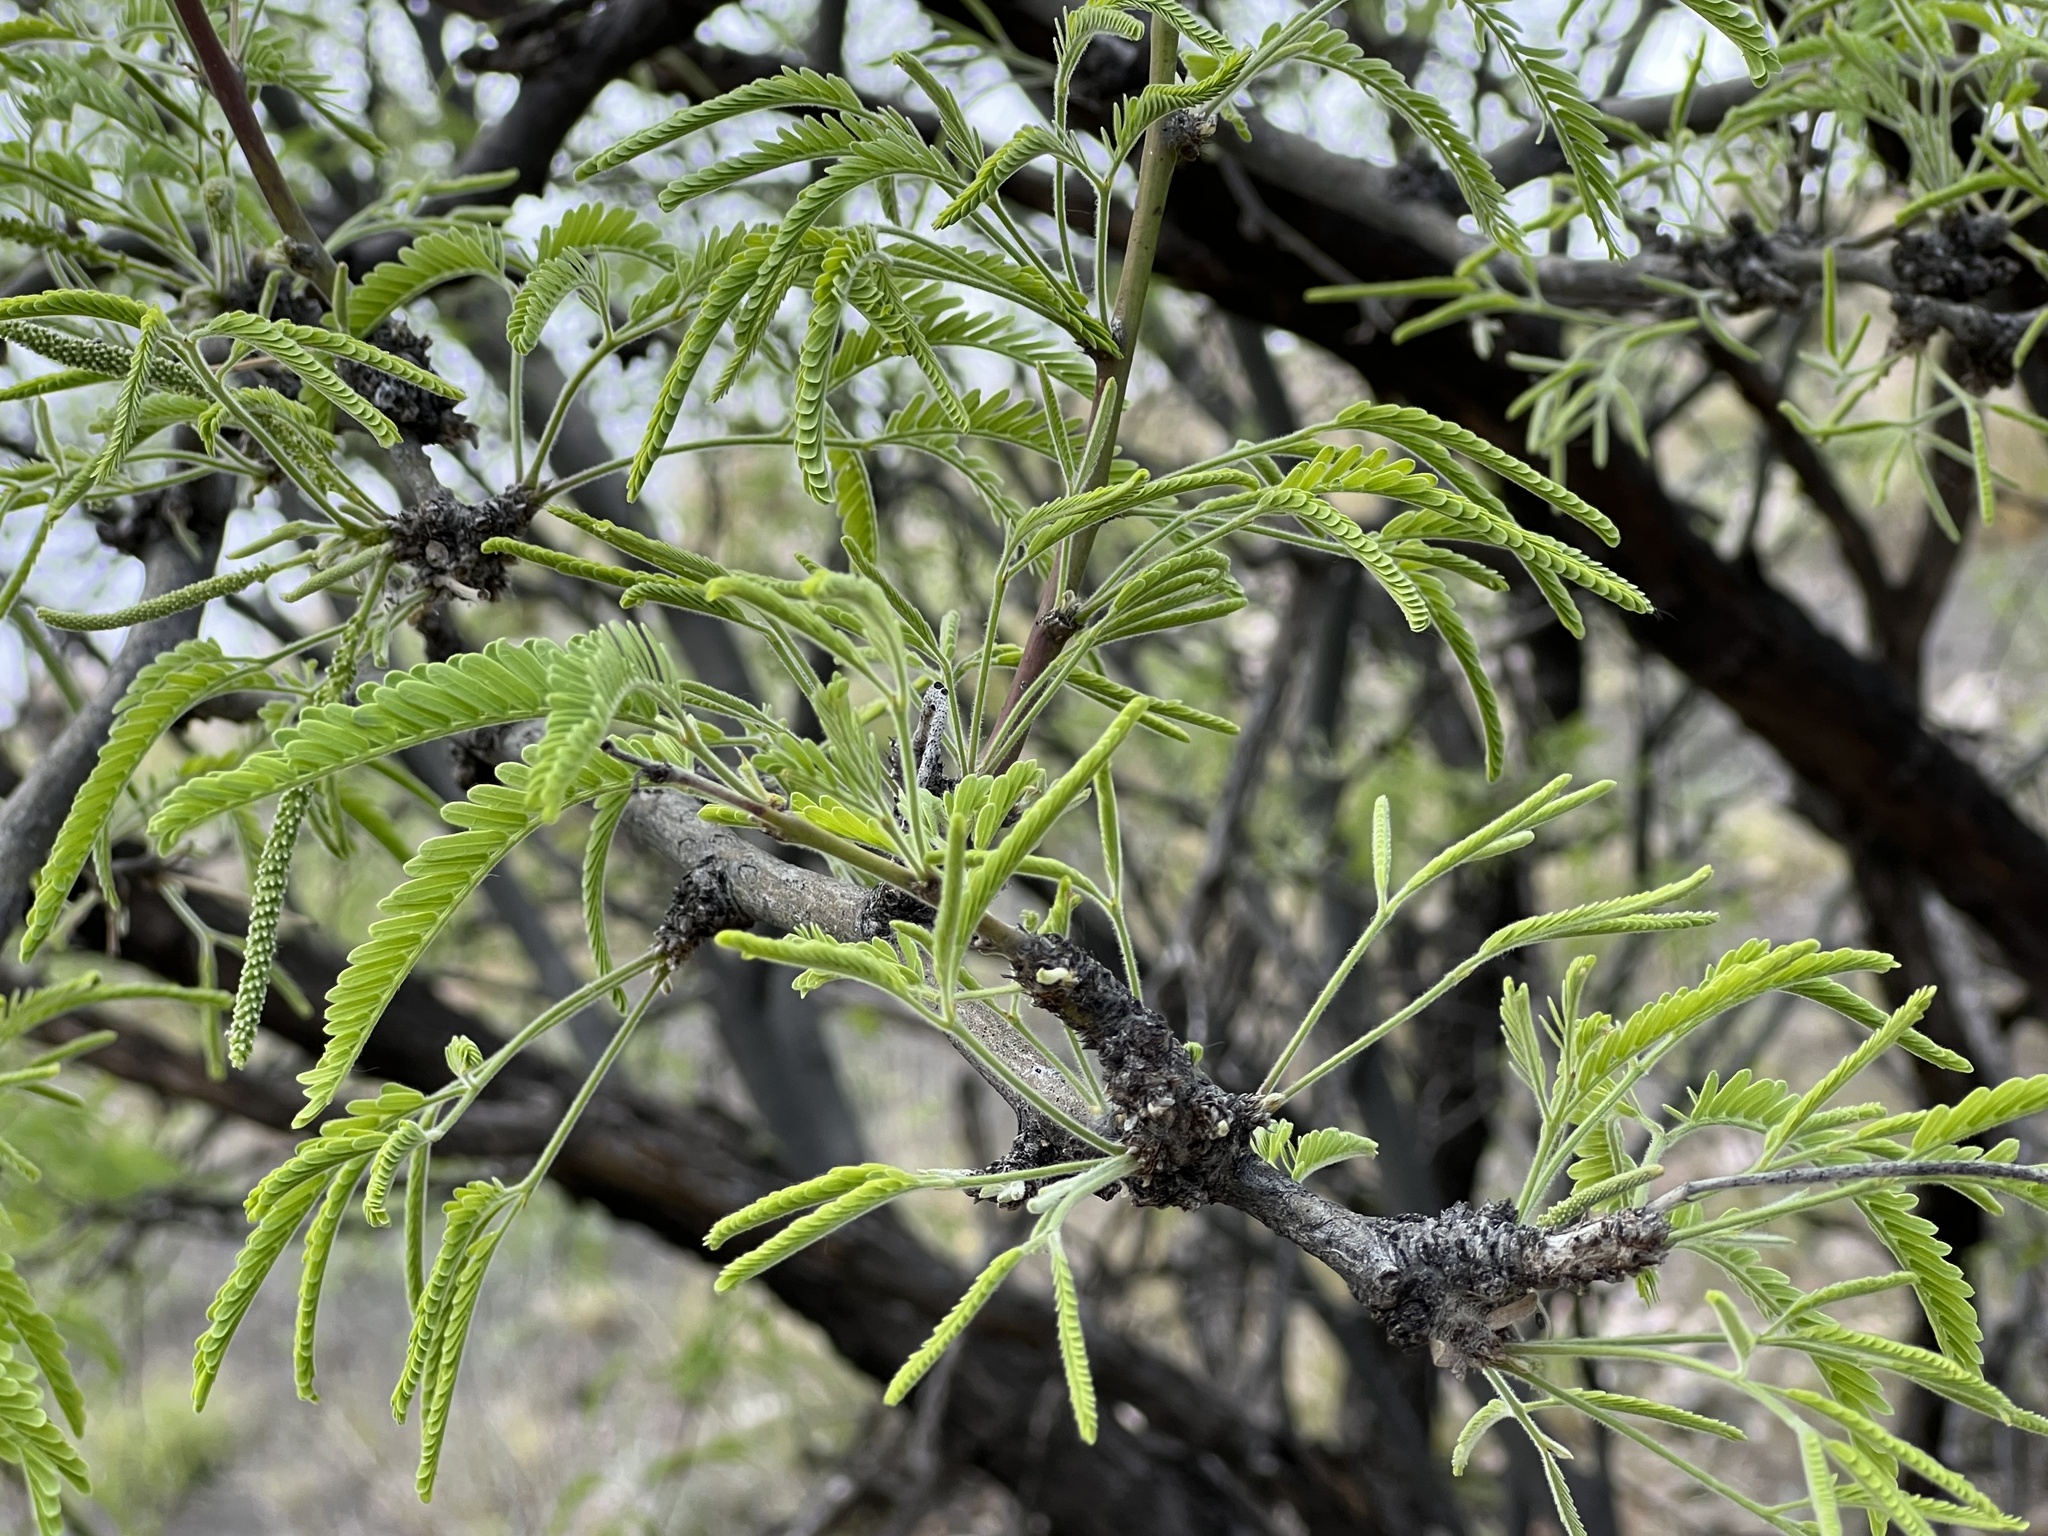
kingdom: Plantae
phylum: Tracheophyta
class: Magnoliopsida
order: Fabales
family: Fabaceae
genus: Prosopis
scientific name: Prosopis velutina
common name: Velvet mesquite
